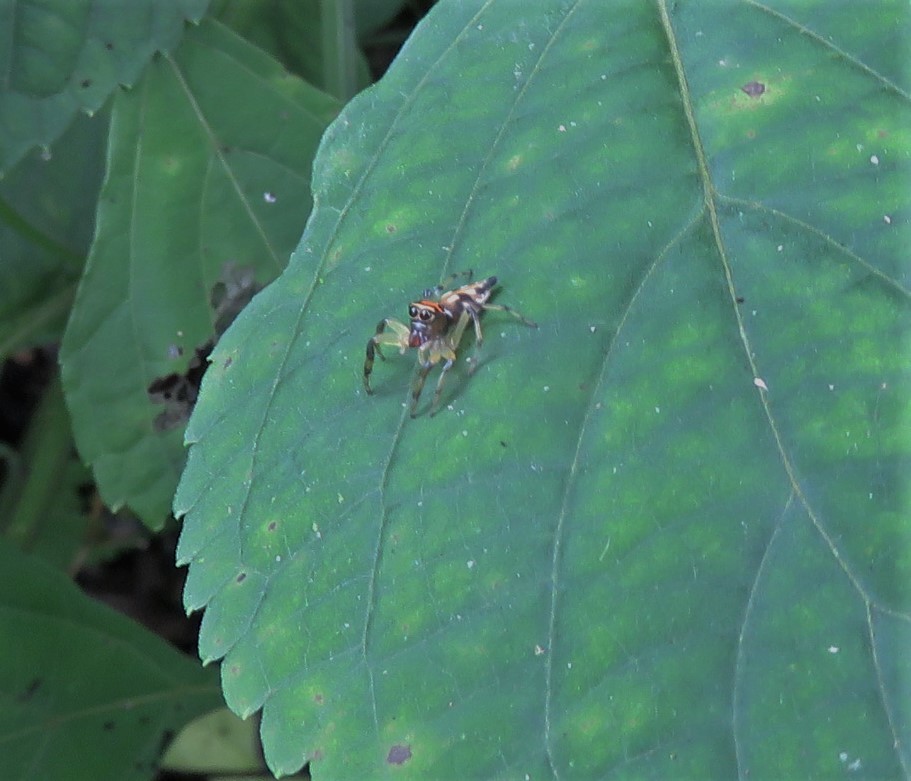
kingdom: Animalia
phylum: Arthropoda
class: Arachnida
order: Araneae
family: Salticidae
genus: Hypaeus
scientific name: Hypaeus benignus
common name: Jumping spiders
